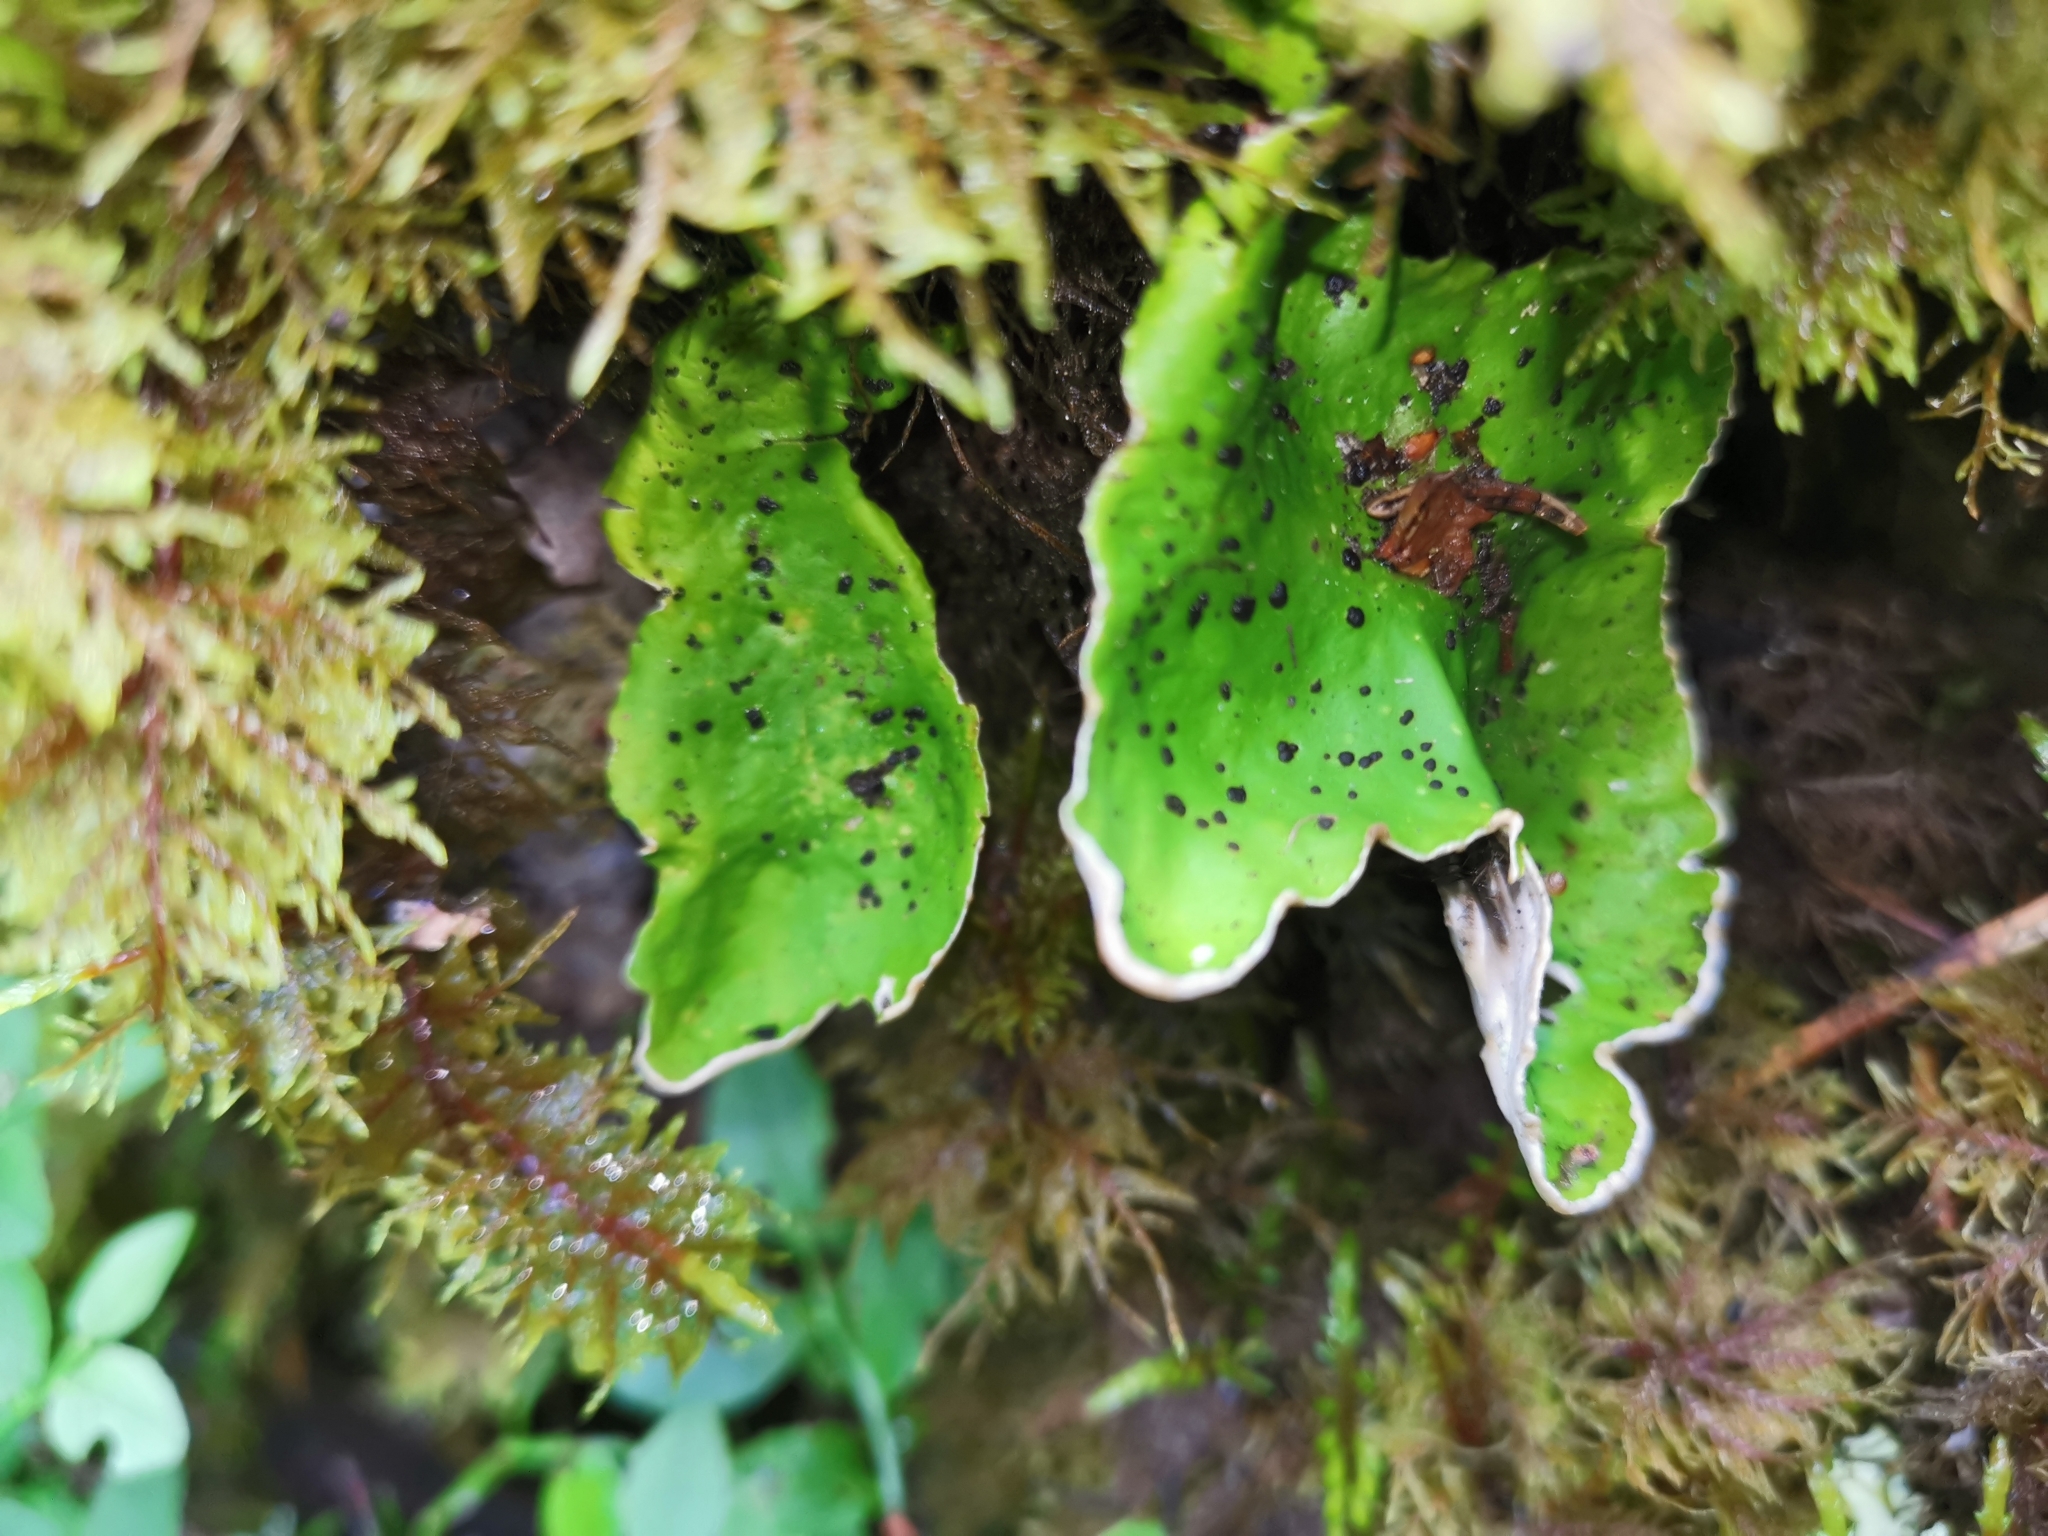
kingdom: Fungi
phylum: Ascomycota
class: Lecanoromycetes
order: Peltigerales
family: Peltigeraceae
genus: Peltigera
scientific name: Peltigera aphthosa
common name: Common freckle pelt lichen
